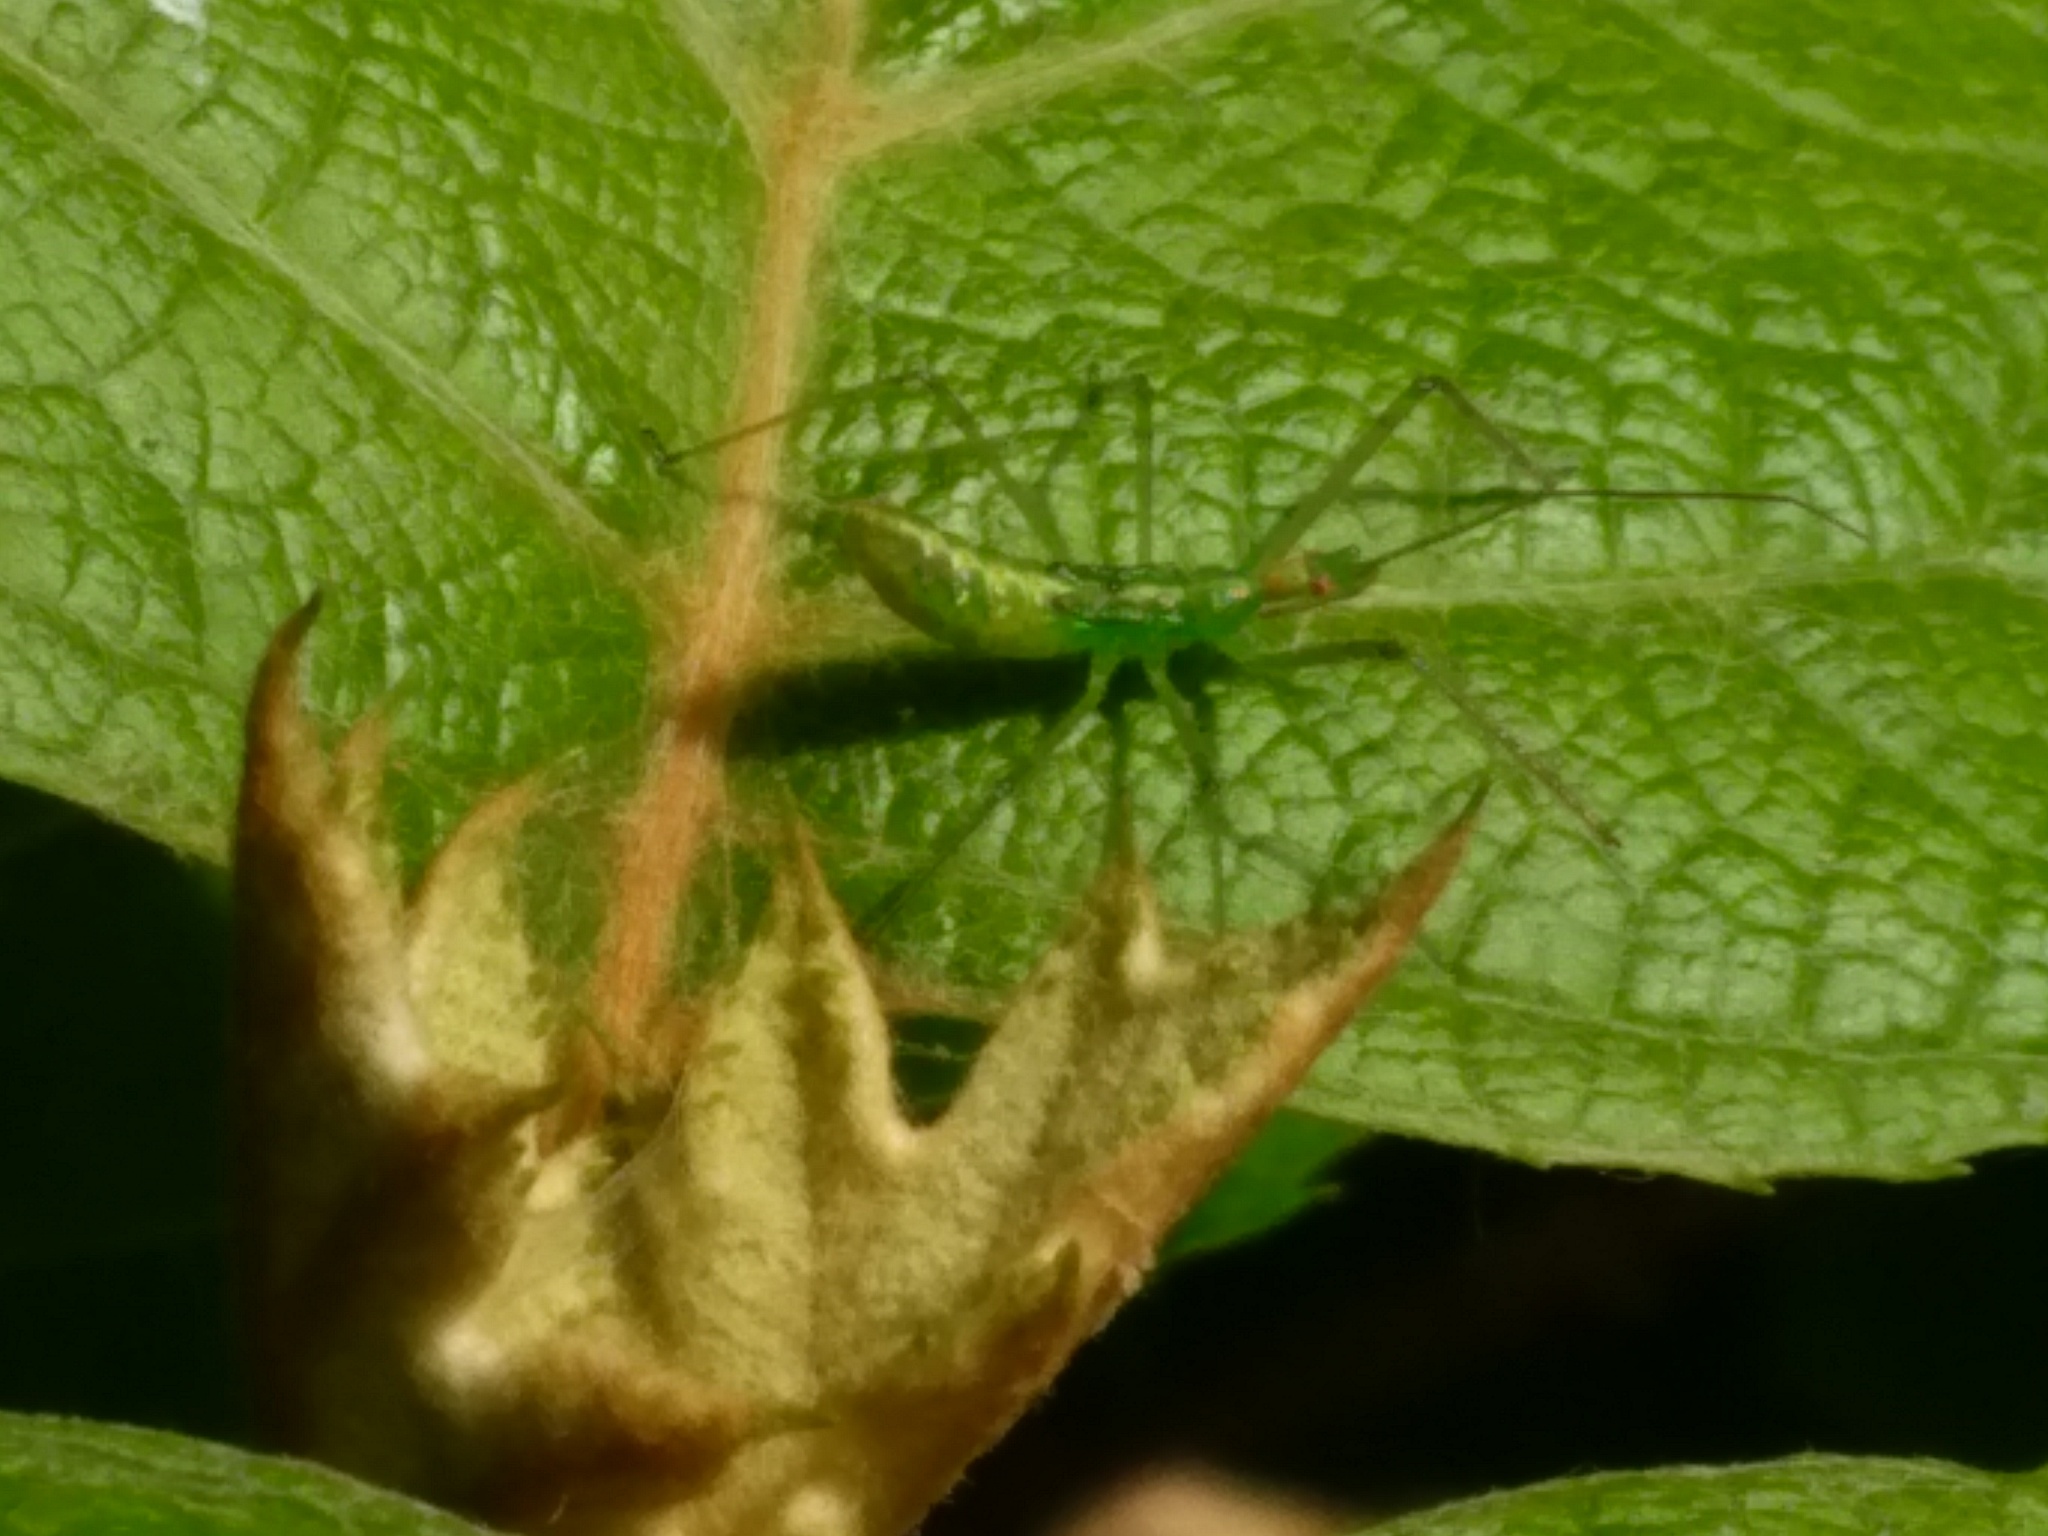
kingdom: Animalia
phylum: Arthropoda
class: Insecta
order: Hemiptera
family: Reduviidae
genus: Zelus
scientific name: Zelus luridus
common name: Pale green assassin bug
